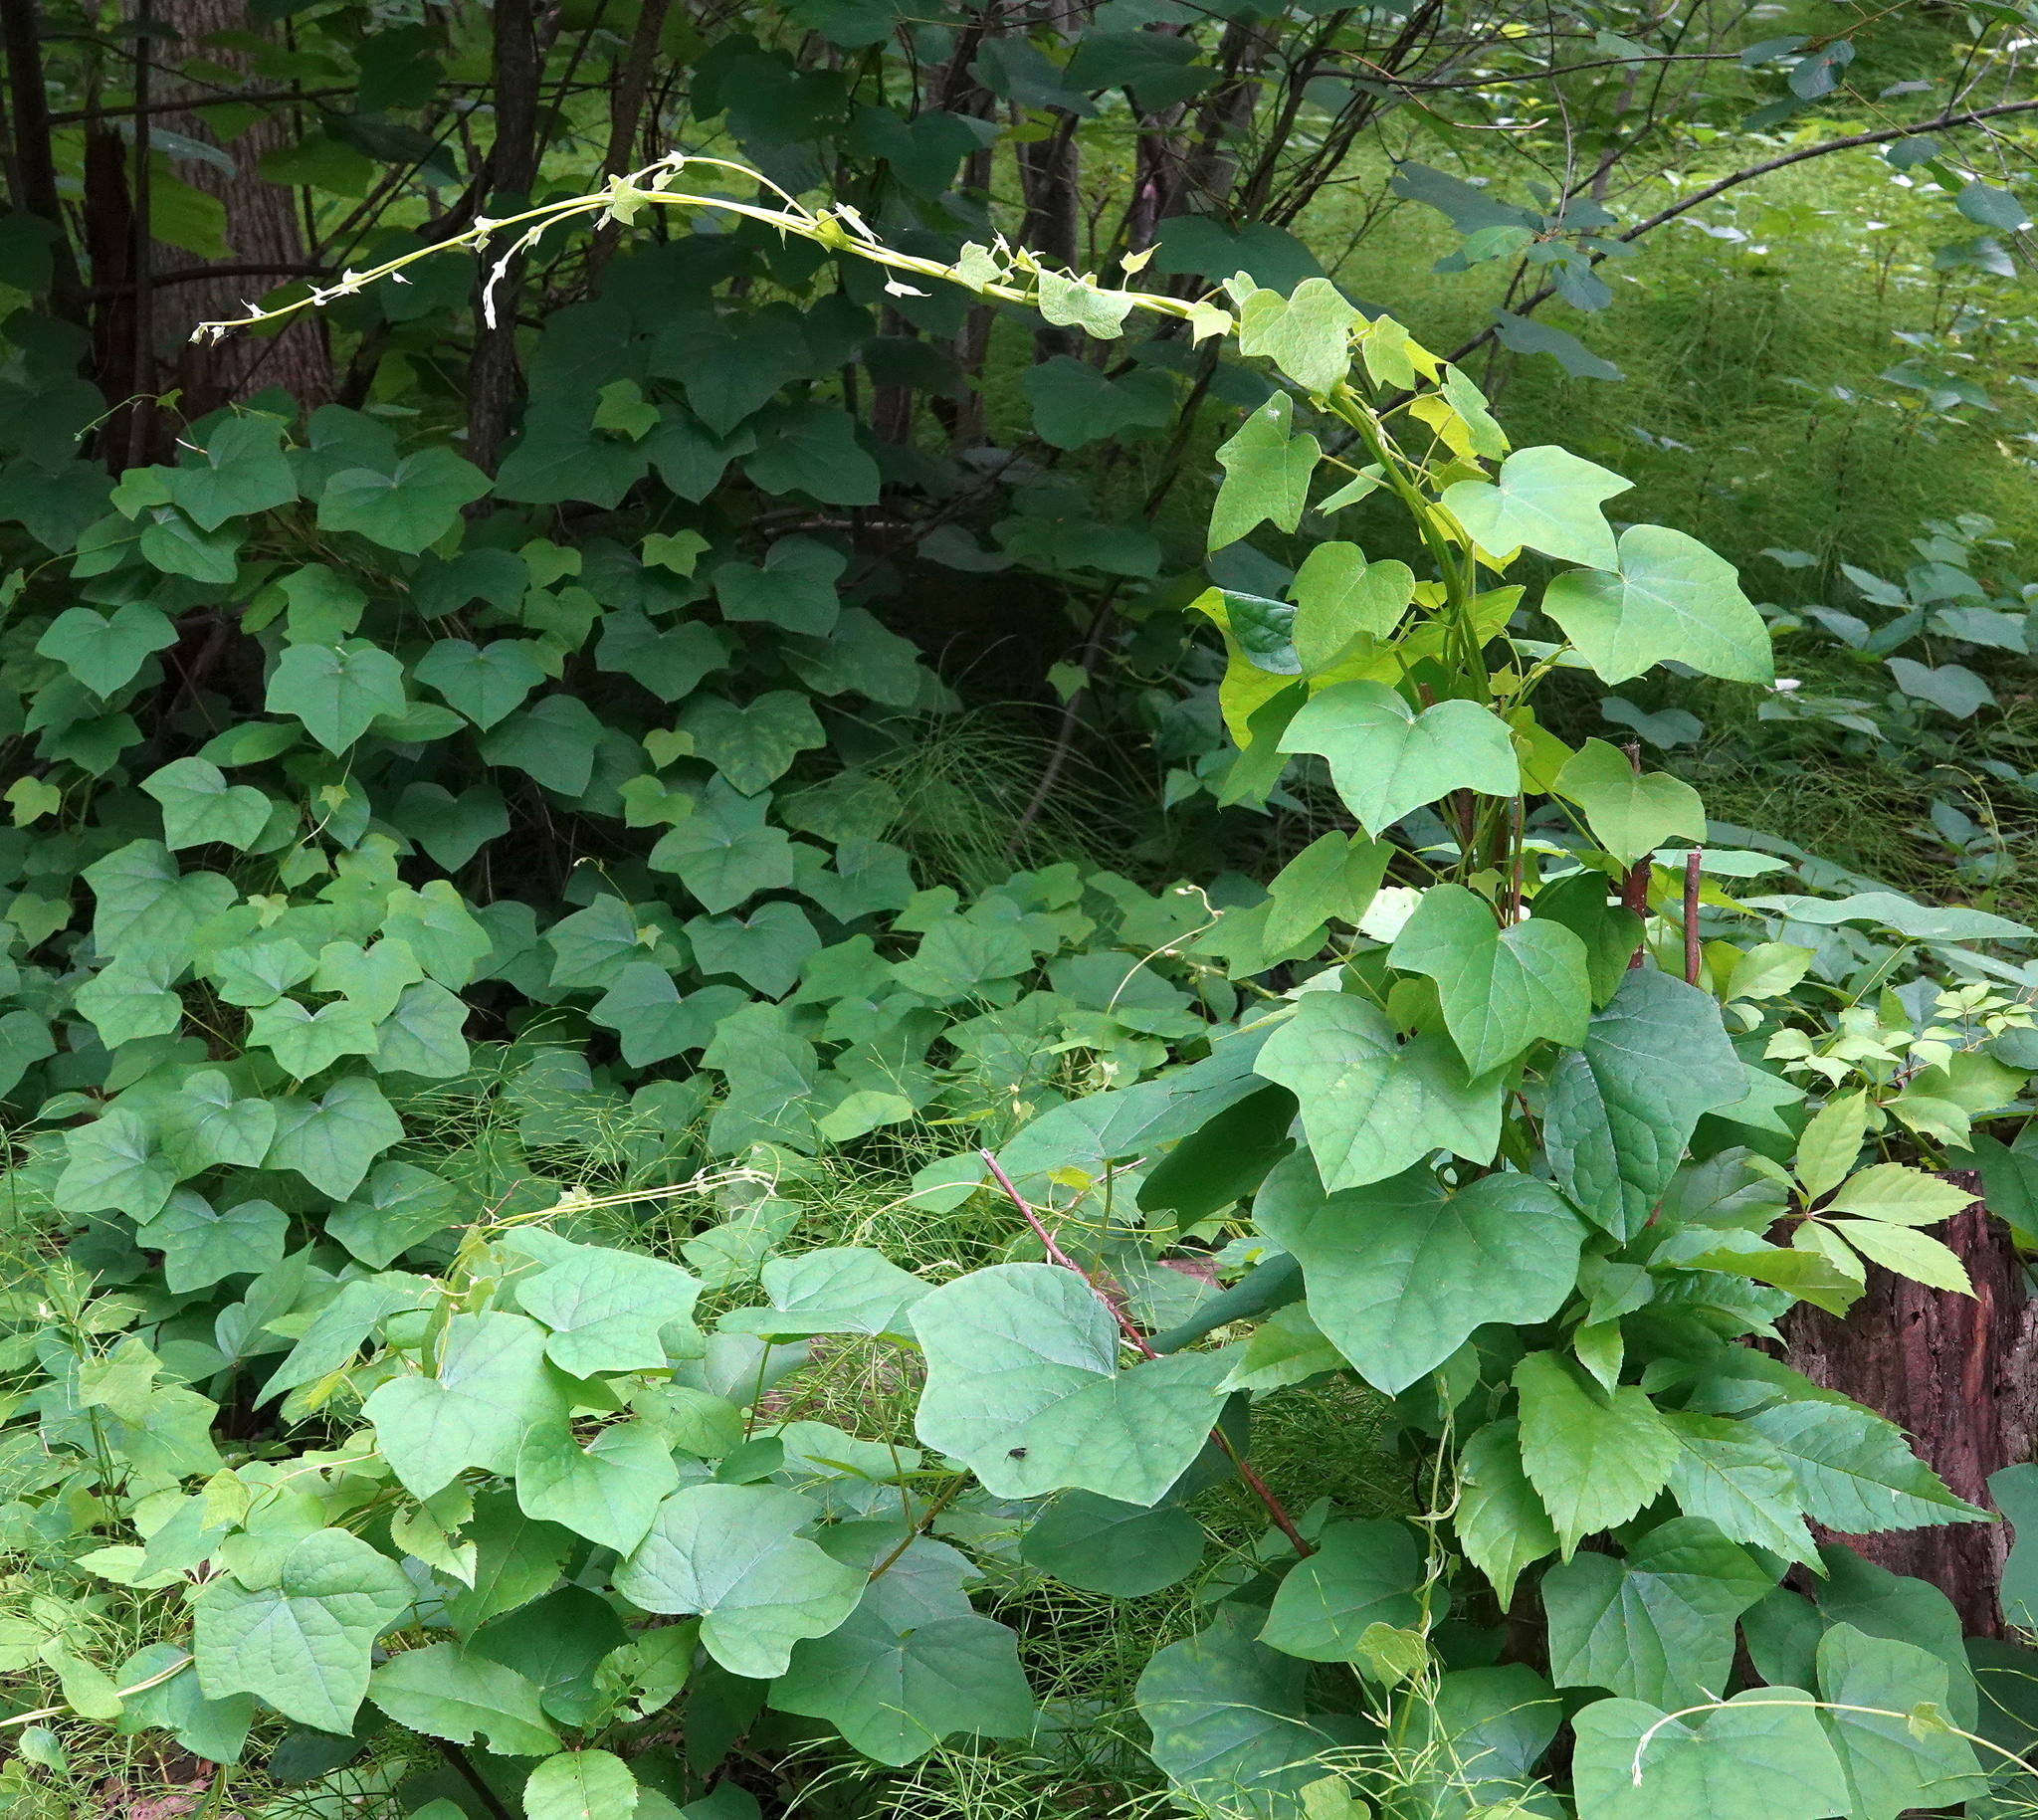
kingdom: Plantae
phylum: Tracheophyta
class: Magnoliopsida
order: Ranunculales
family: Menispermaceae
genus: Menispermum
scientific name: Menispermum canadense
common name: Moonseed
